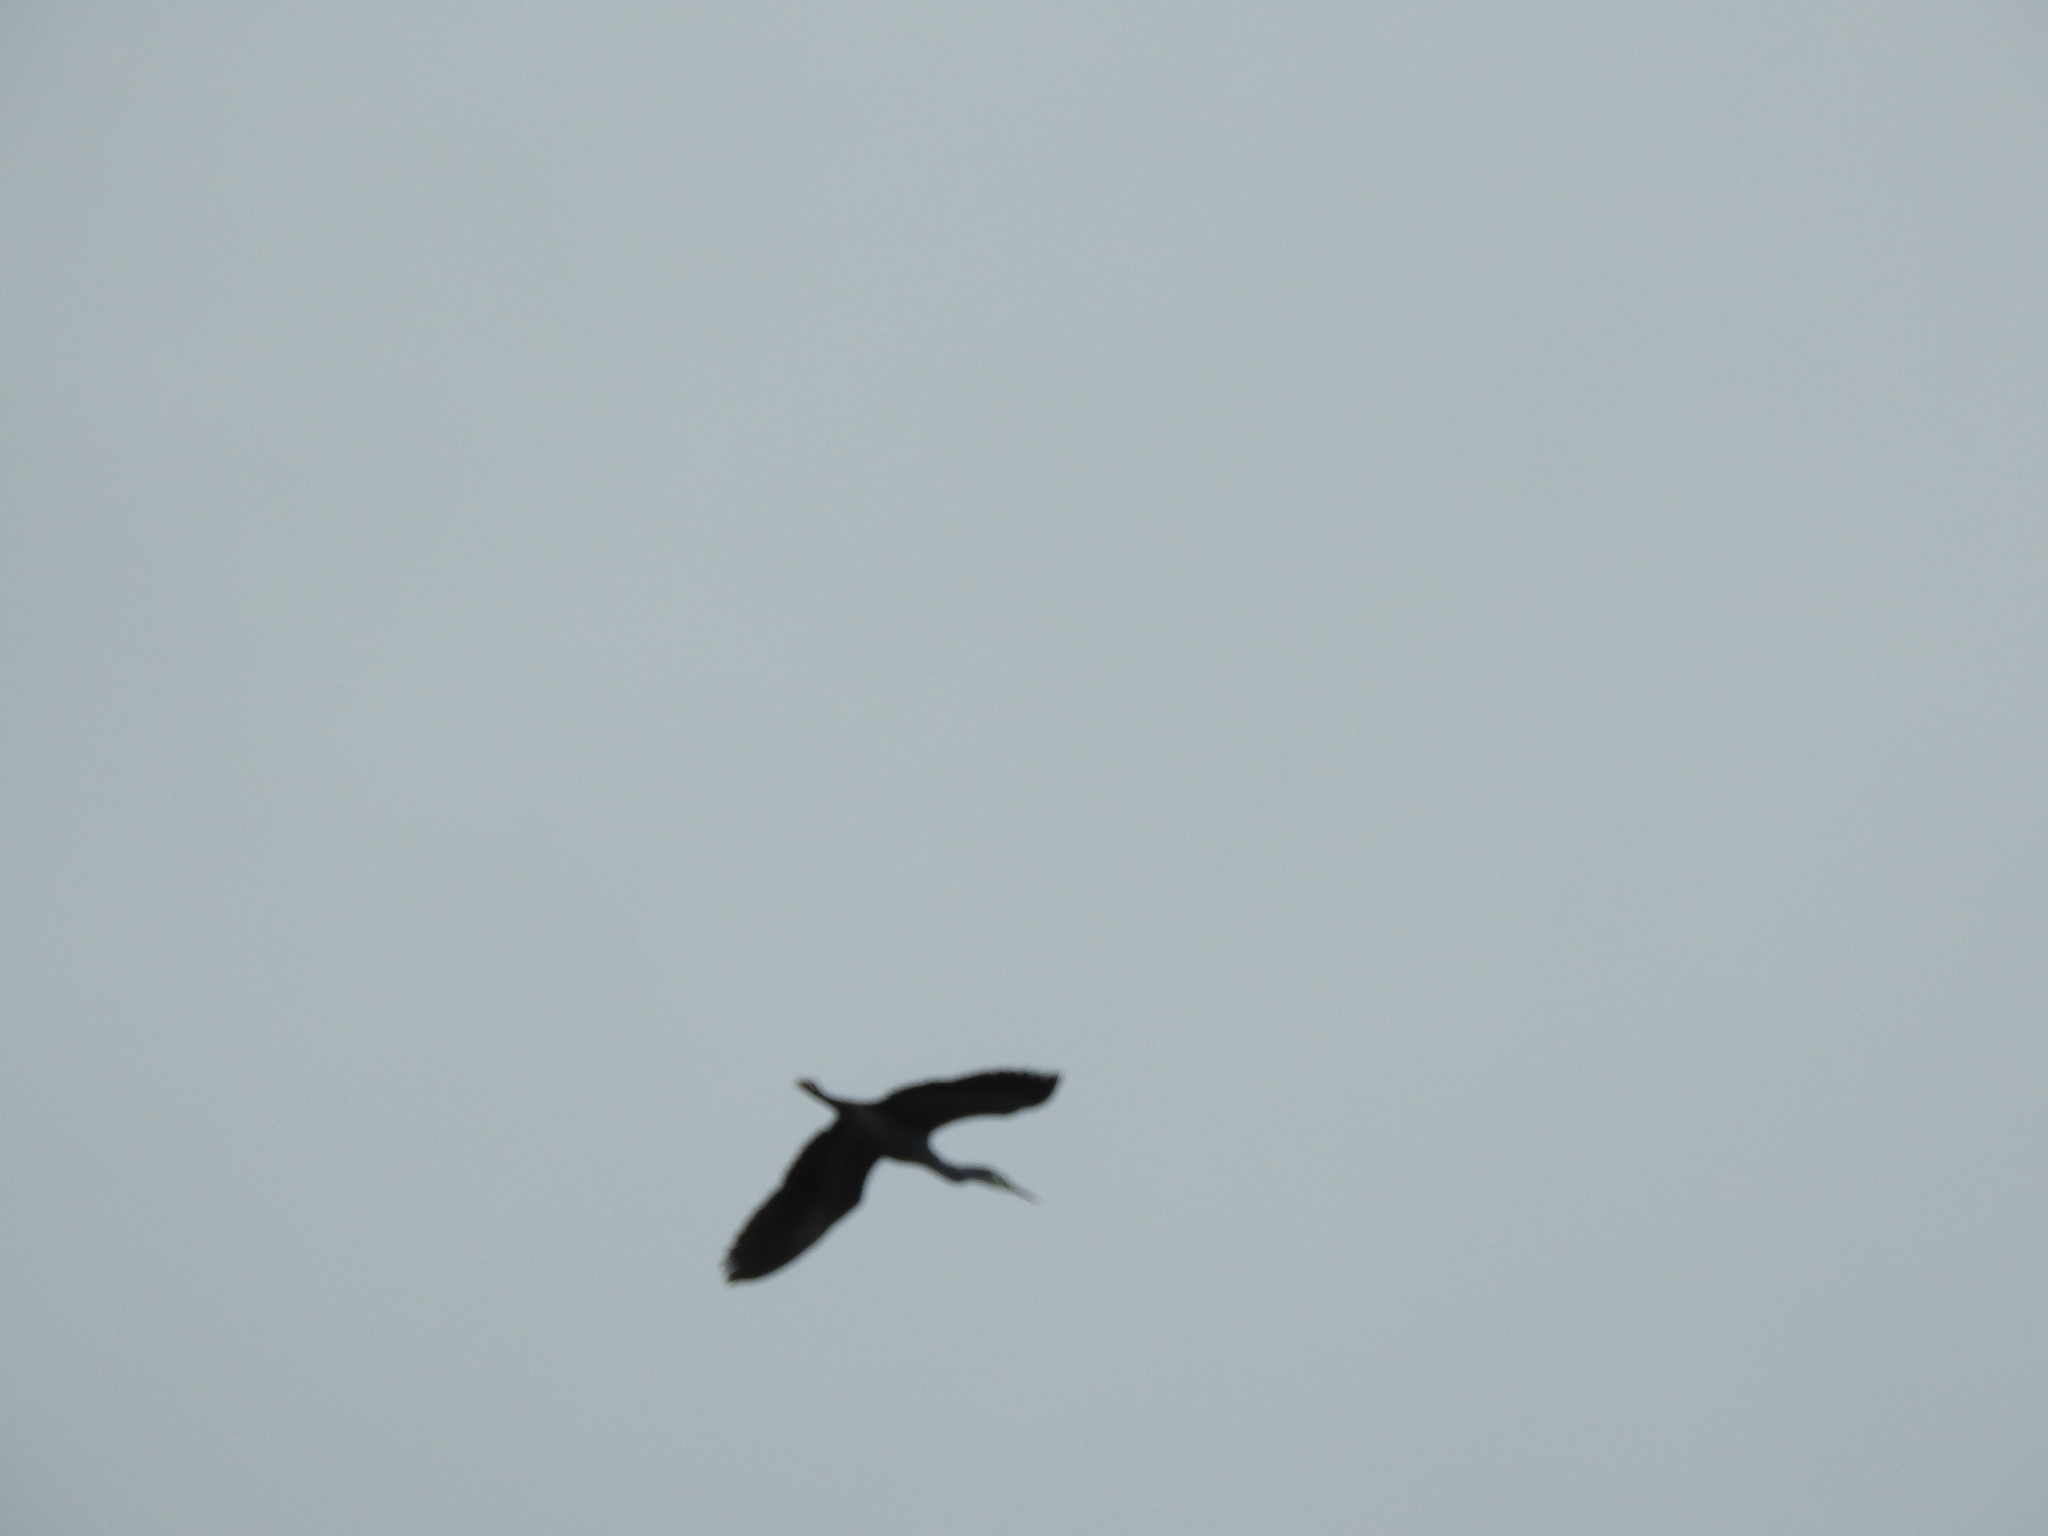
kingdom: Animalia
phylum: Chordata
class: Aves
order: Pelecaniformes
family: Ardeidae
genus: Egretta
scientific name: Egretta novaehollandiae
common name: White-faced heron
